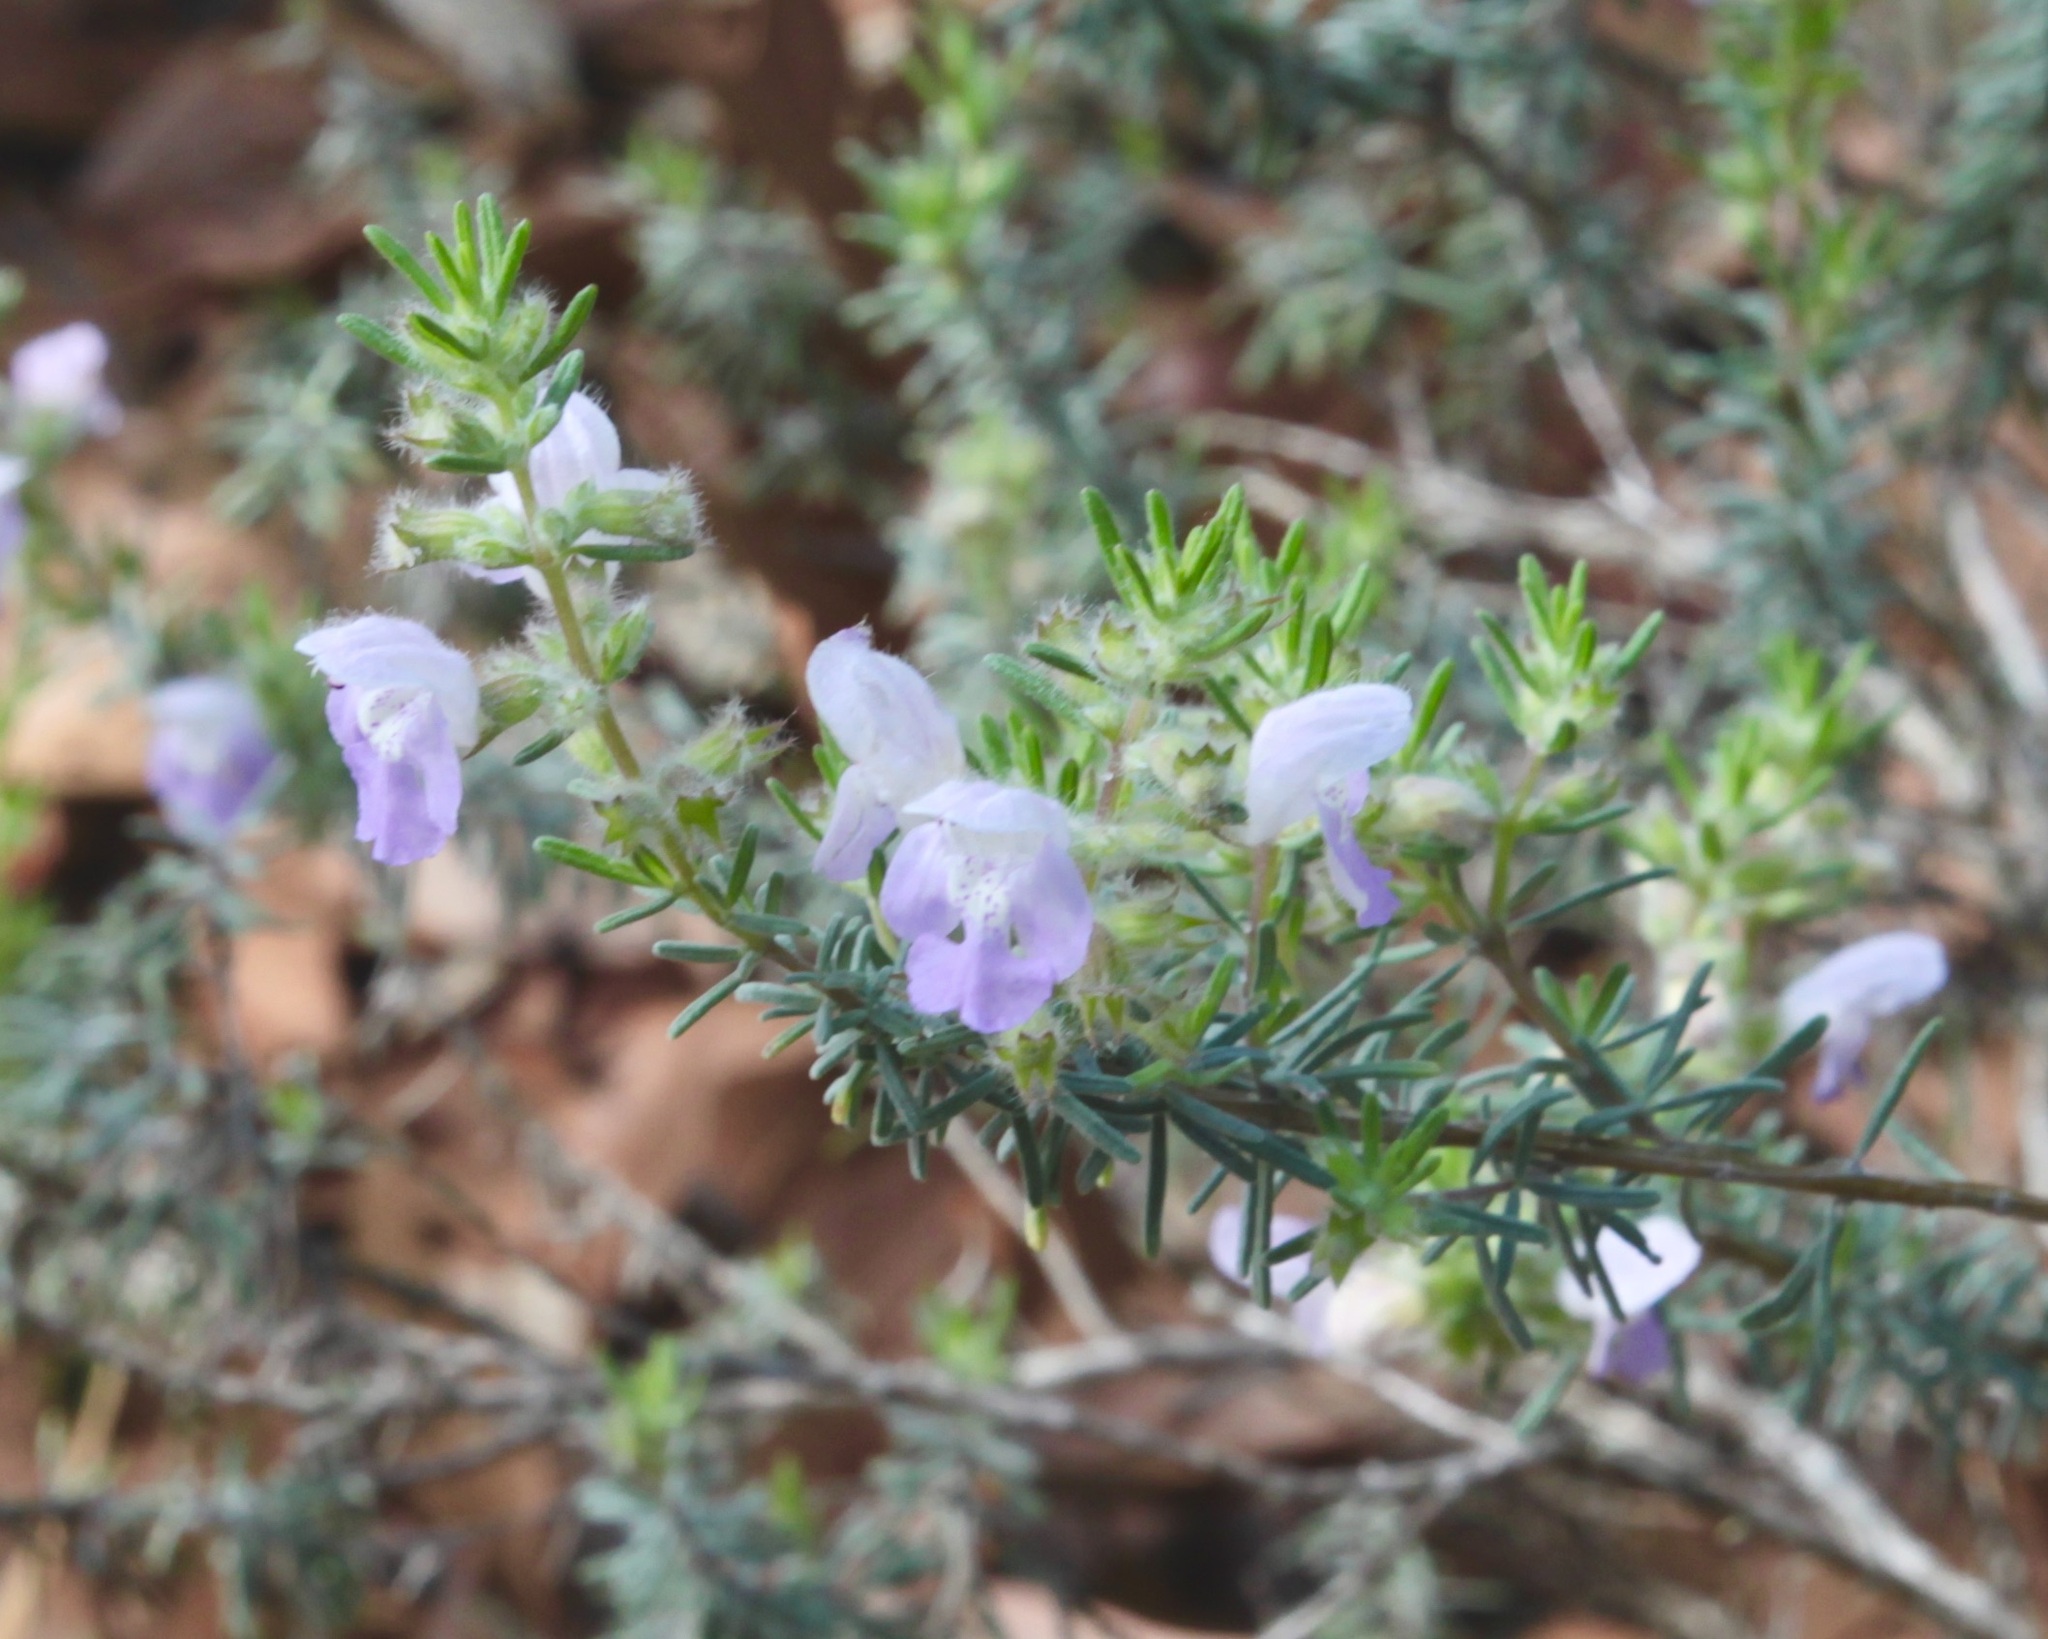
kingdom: Plantae
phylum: Tracheophyta
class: Magnoliopsida
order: Lamiales
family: Lamiaceae
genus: Conradina
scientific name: Conradina canescens
